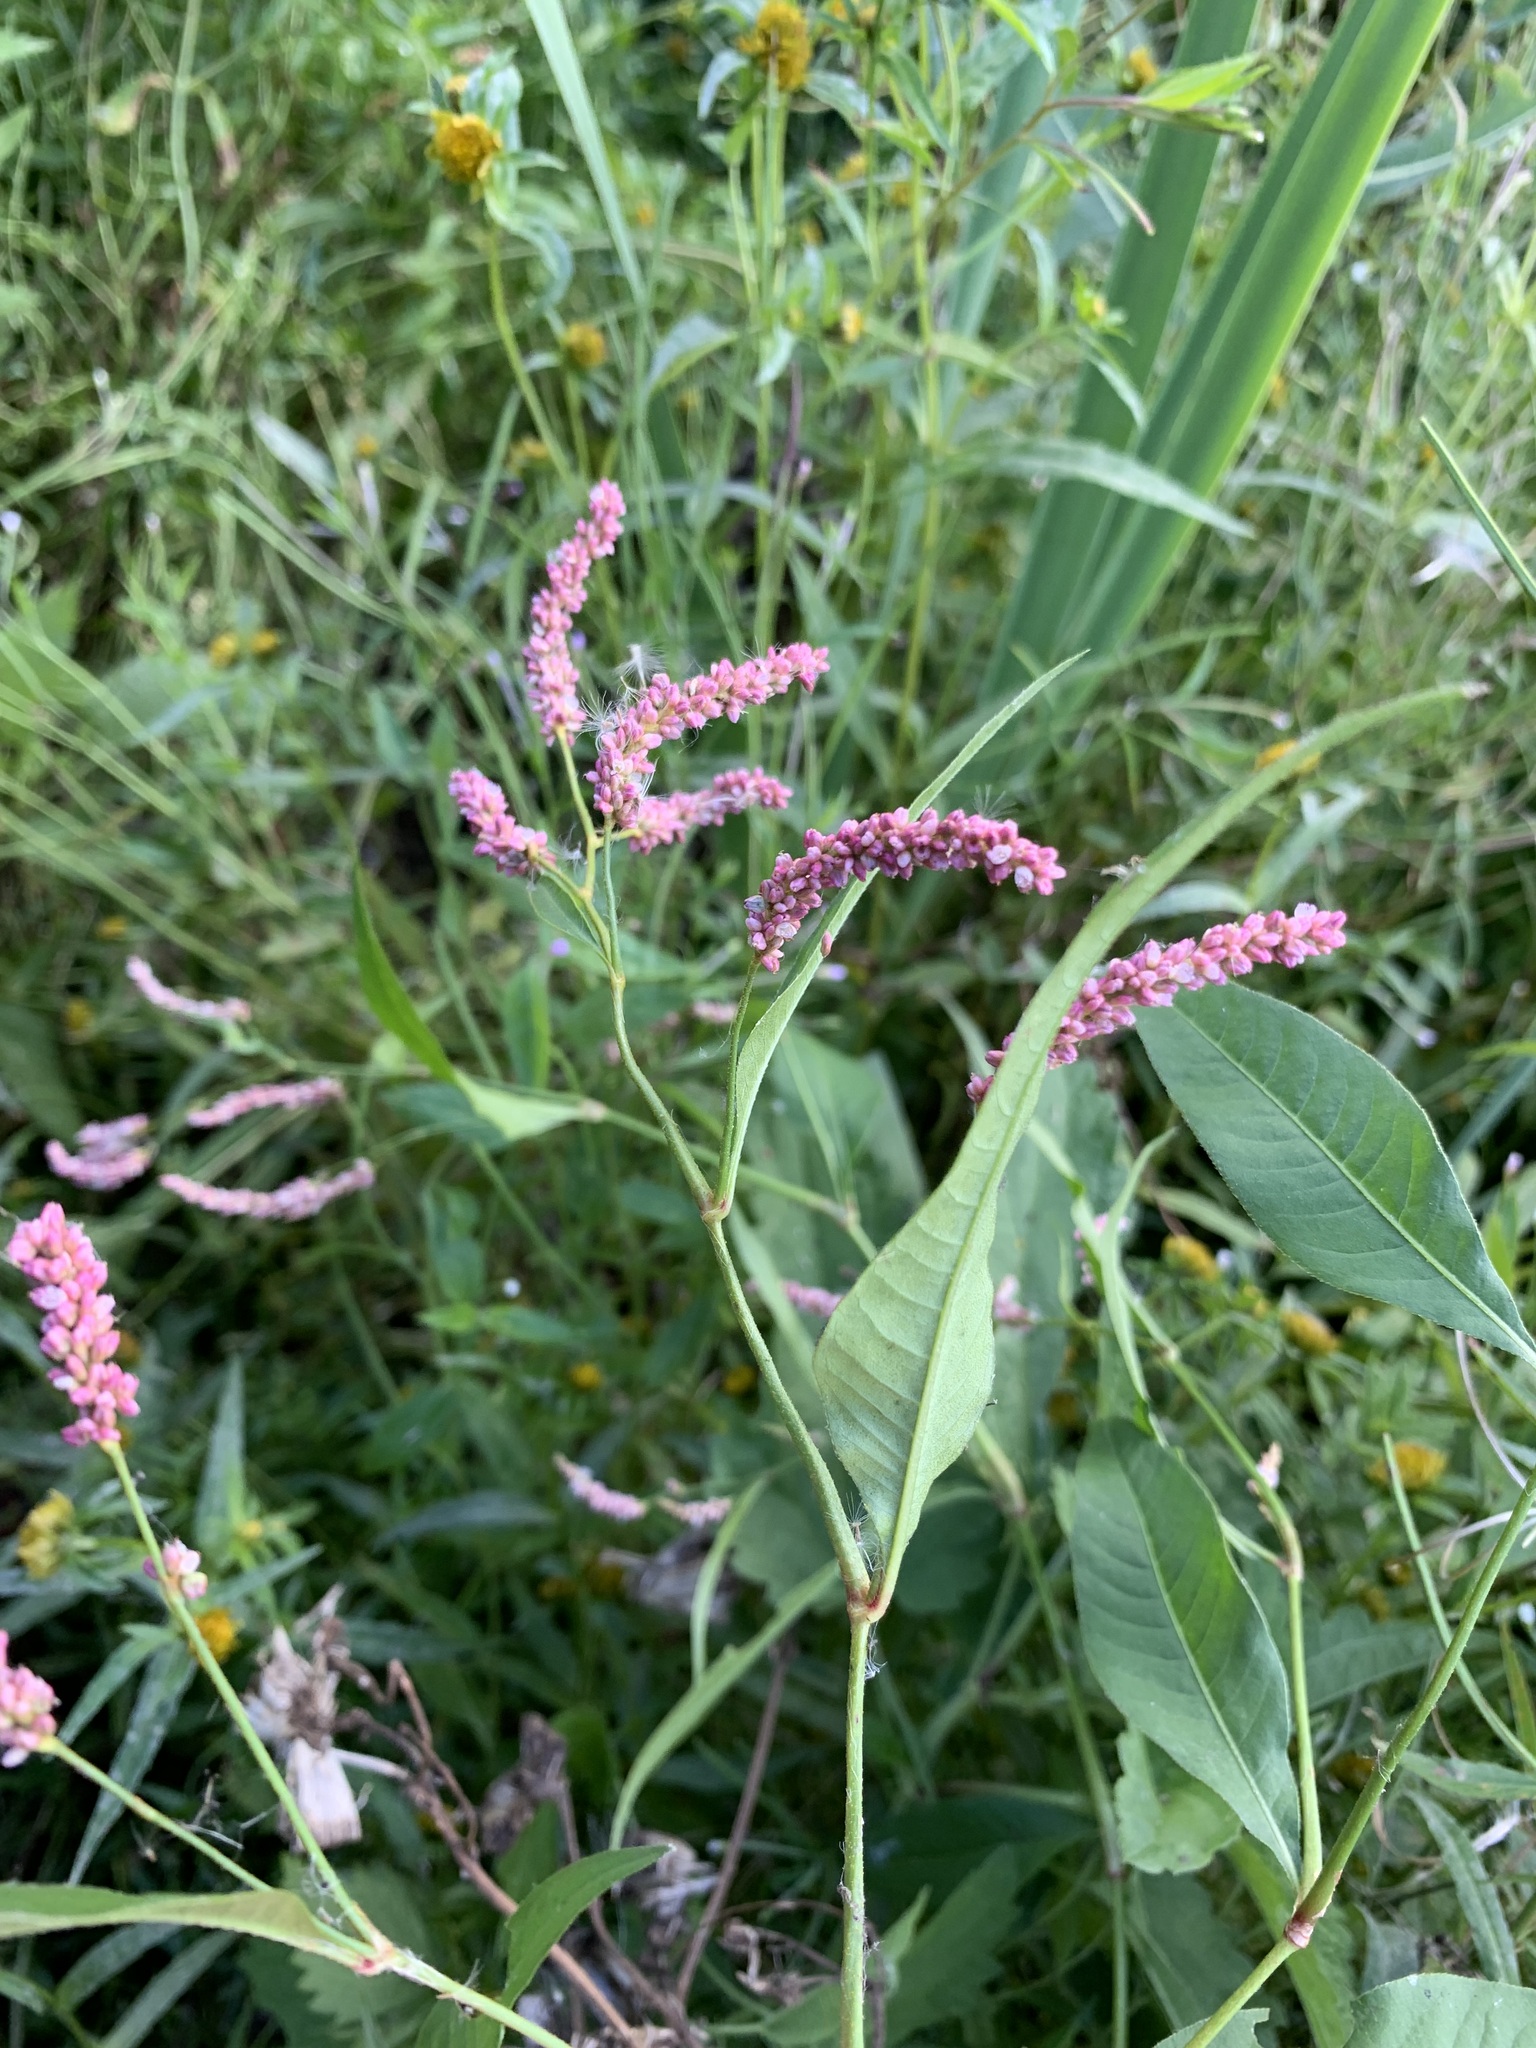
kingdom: Plantae
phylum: Tracheophyta
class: Magnoliopsida
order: Caryophyllales
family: Polygonaceae
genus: Persicaria
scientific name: Persicaria lapathifolia
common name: Curlytop knotweed
